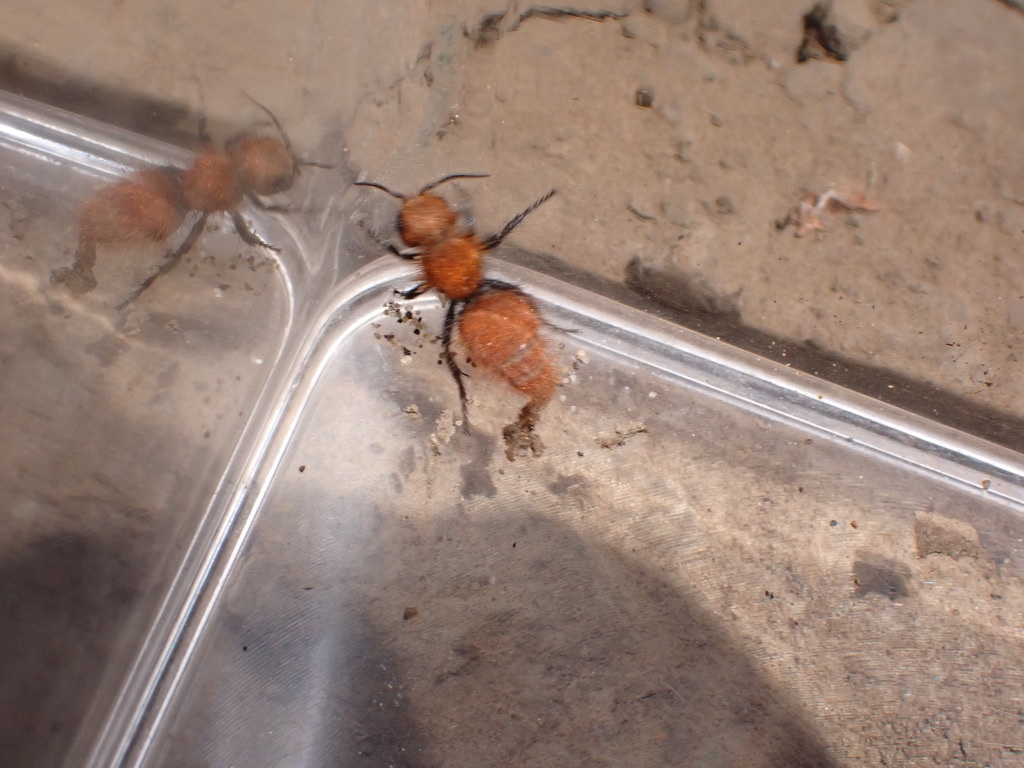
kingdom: Animalia
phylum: Arthropoda
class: Insecta
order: Hymenoptera
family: Mutillidae
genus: Dasymutilla
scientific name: Dasymutilla
